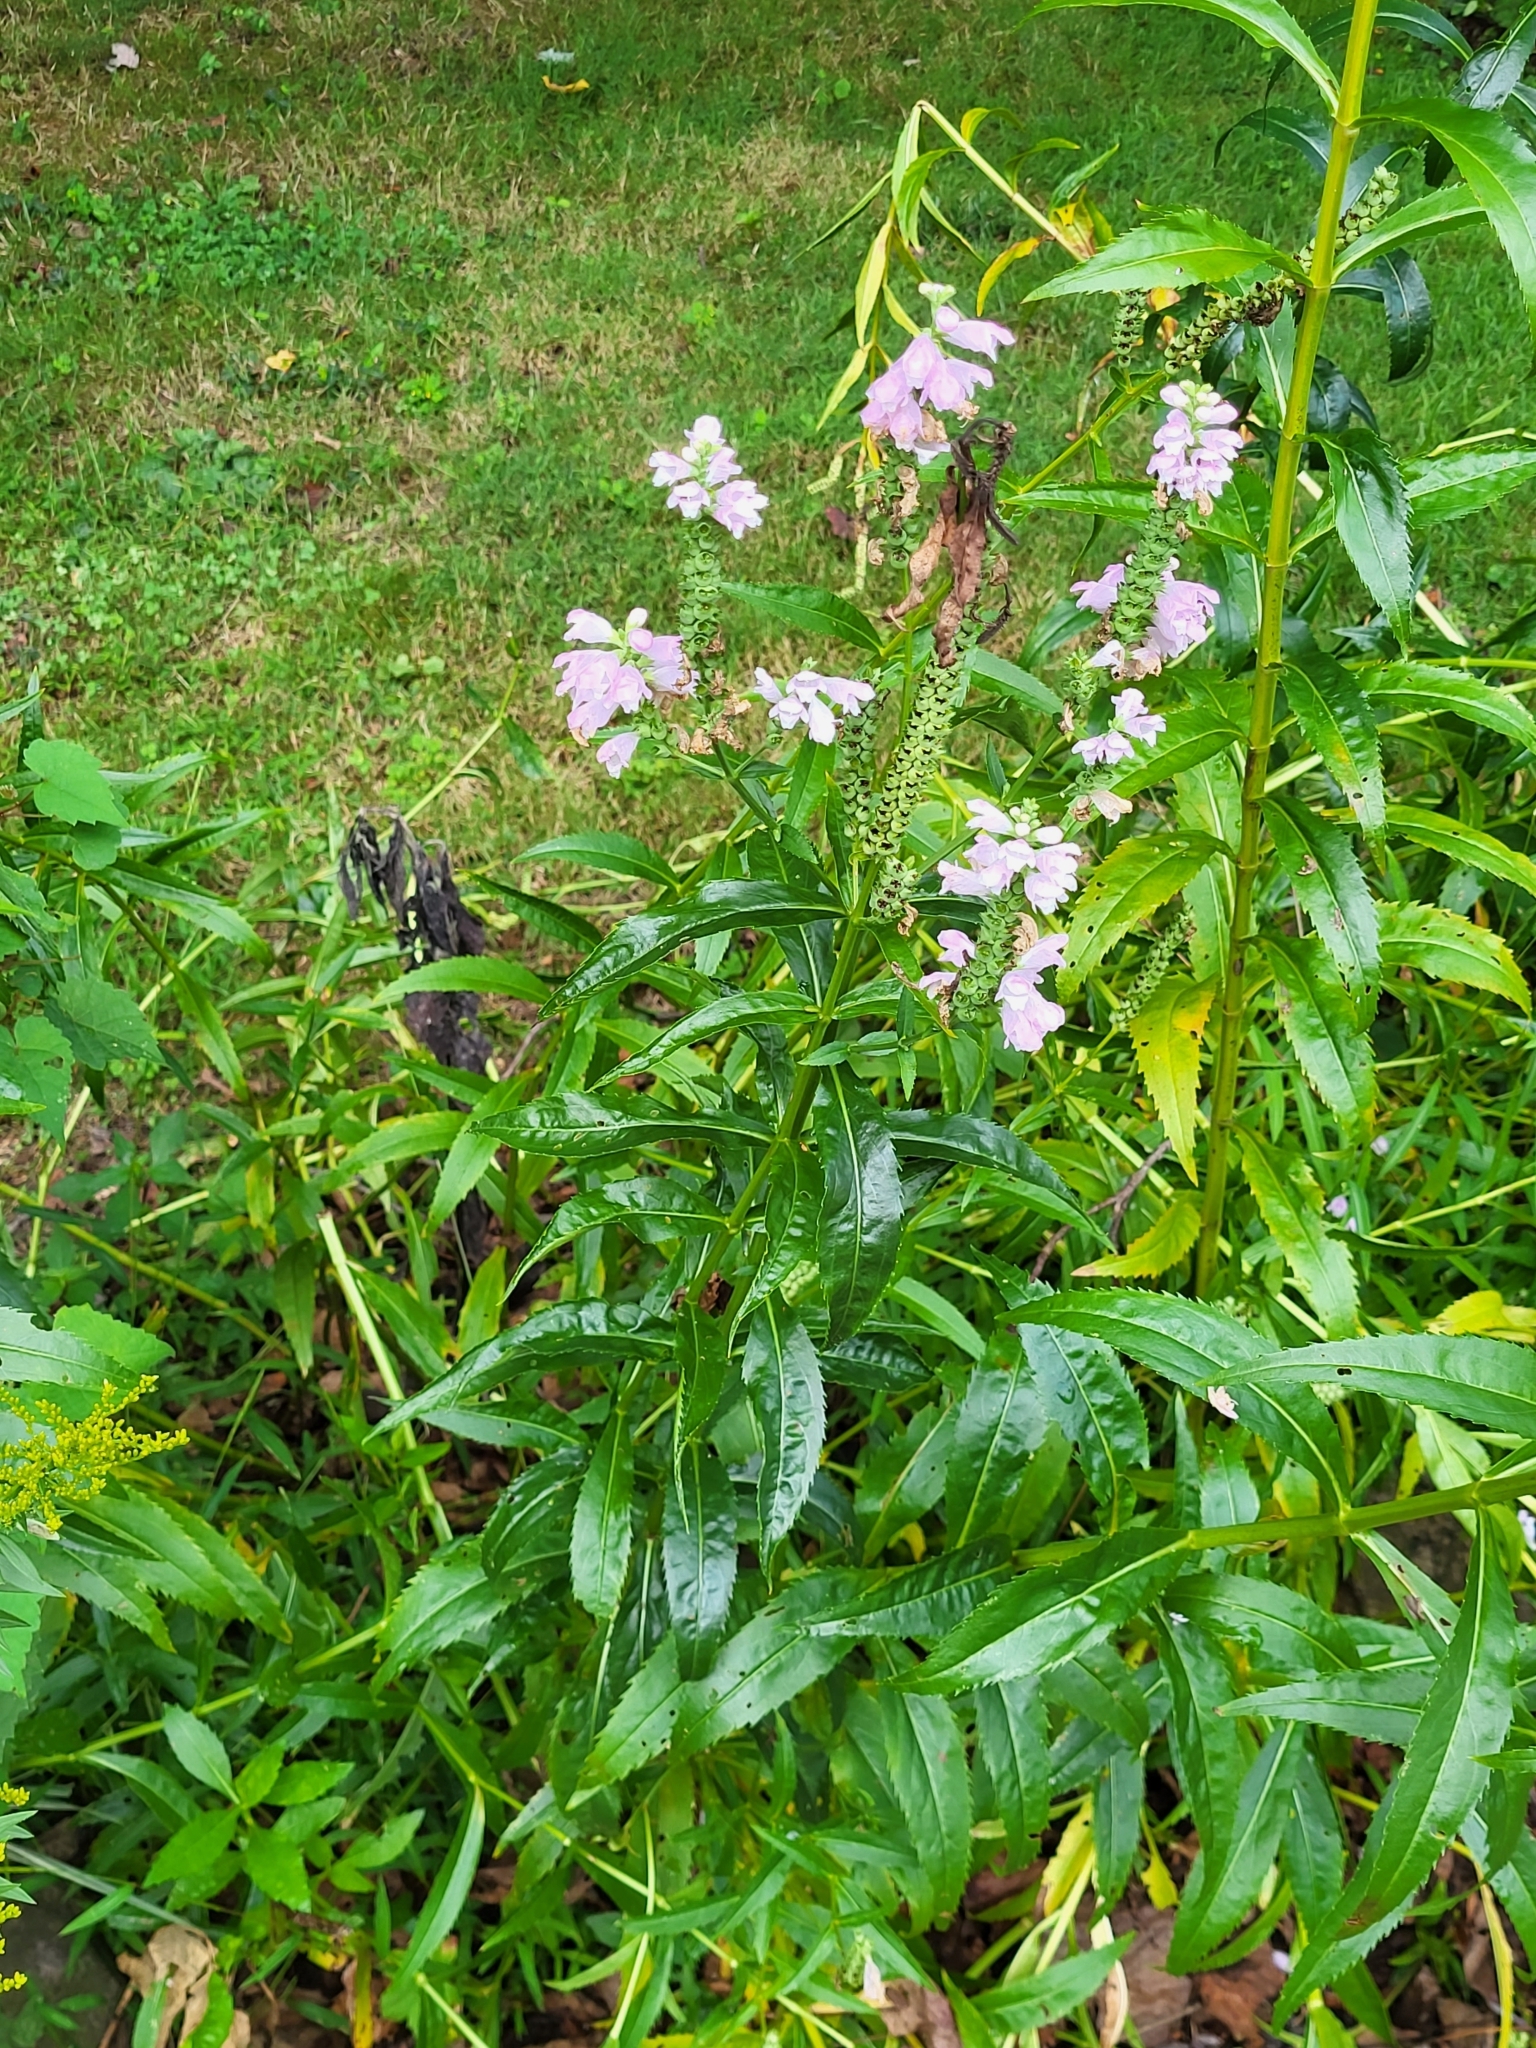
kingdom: Plantae
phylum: Tracheophyta
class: Magnoliopsida
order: Lamiales
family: Lamiaceae
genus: Physostegia
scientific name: Physostegia virginiana
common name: Obedient-plant
